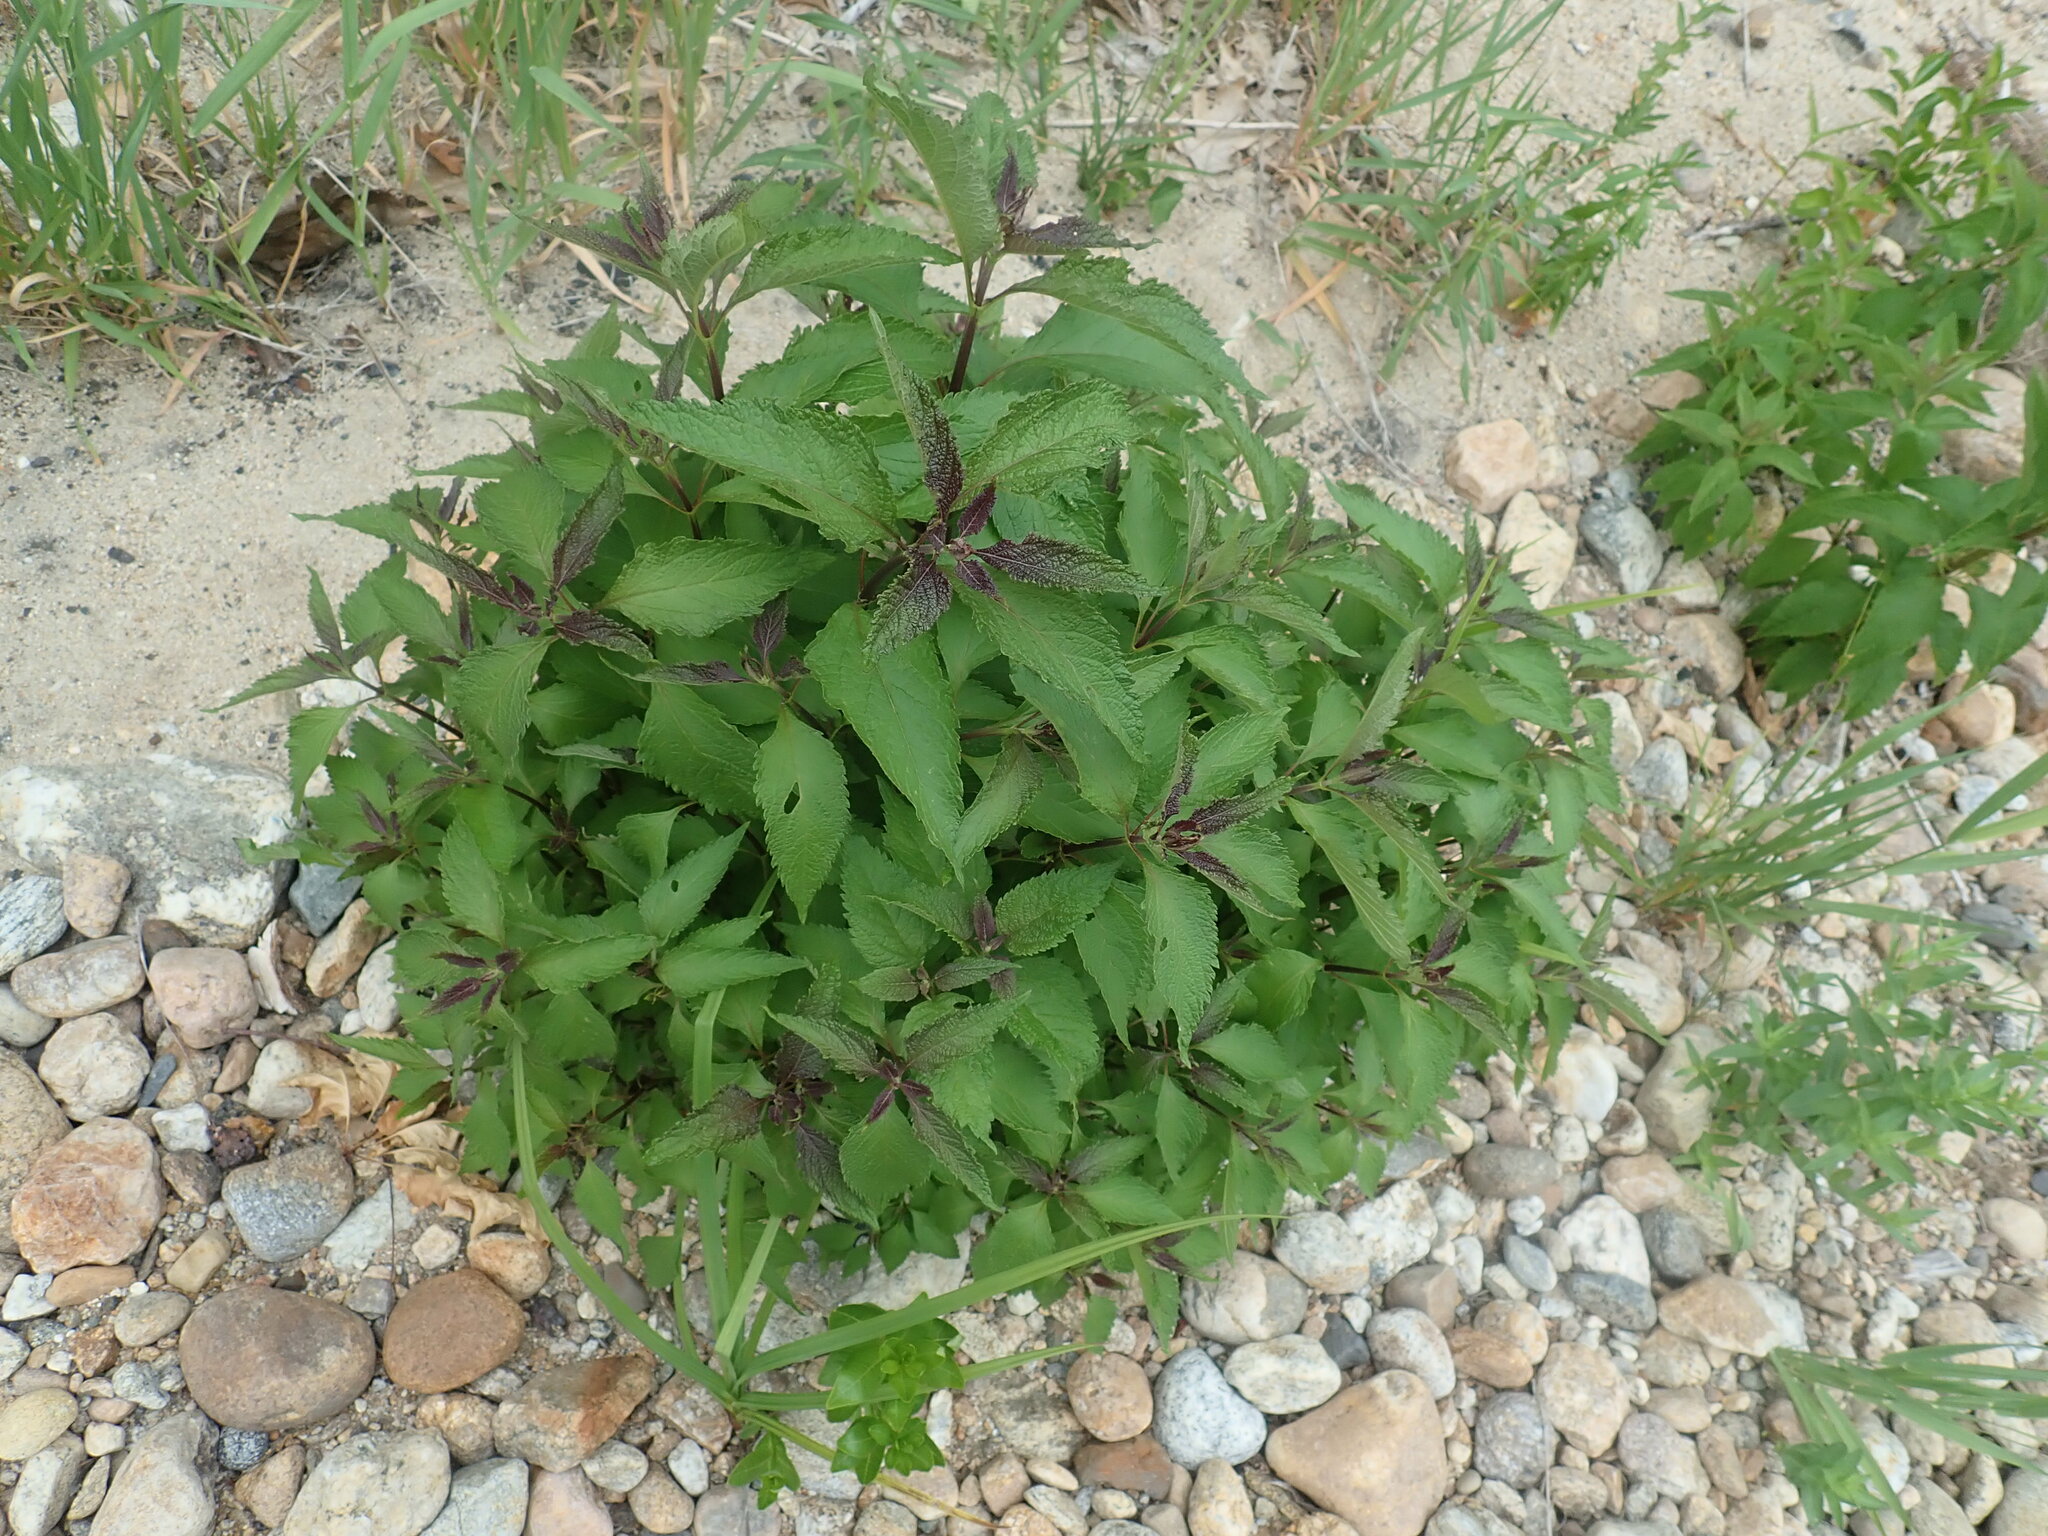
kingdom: Plantae
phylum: Tracheophyta
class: Magnoliopsida
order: Asterales
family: Asteraceae
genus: Eutrochium
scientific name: Eutrochium
